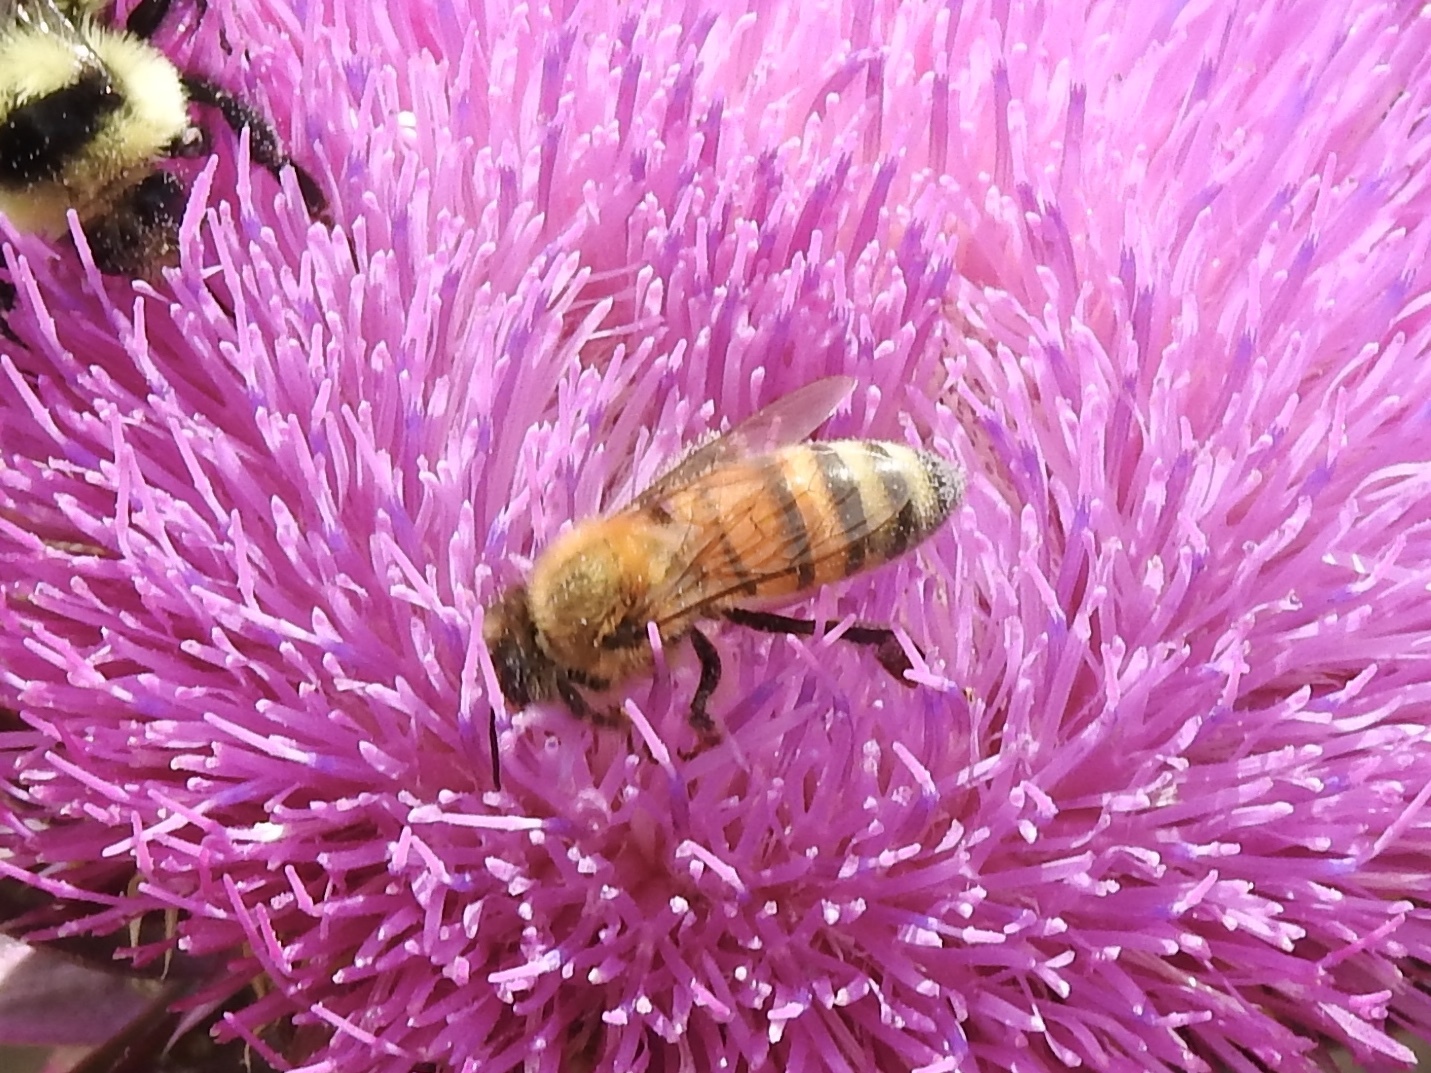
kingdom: Animalia
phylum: Arthropoda
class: Insecta
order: Hymenoptera
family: Apidae
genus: Apis
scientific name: Apis mellifera
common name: Honey bee
